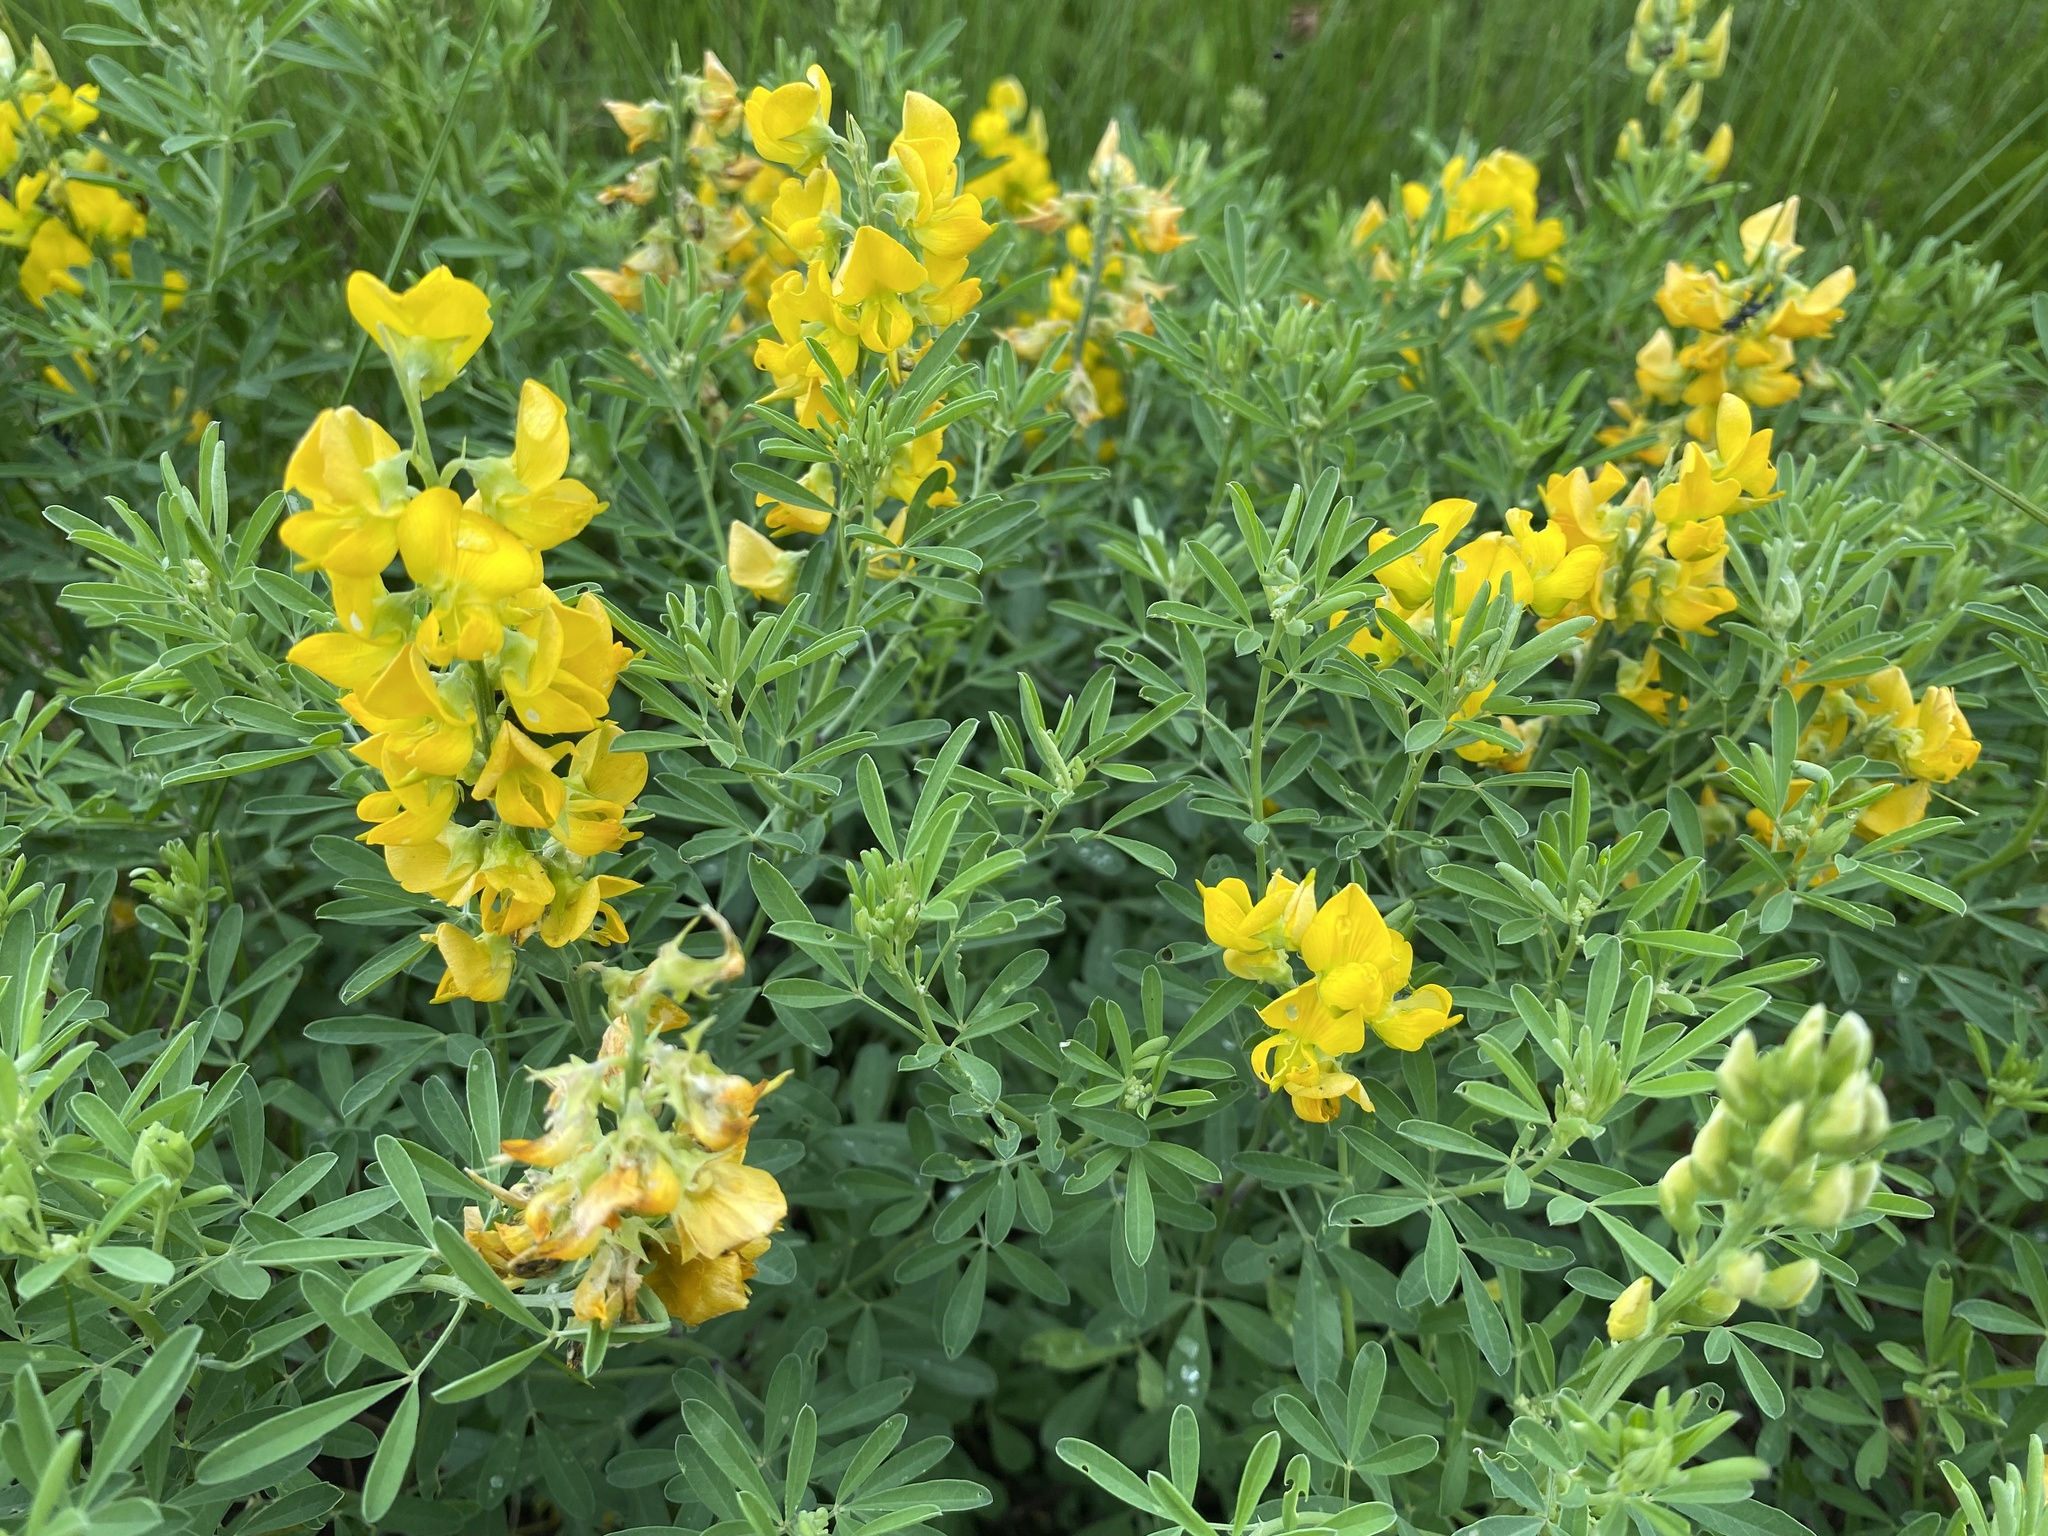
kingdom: Plantae
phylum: Tracheophyta
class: Magnoliopsida
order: Fabales
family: Fabaceae
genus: Crotalaria
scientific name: Crotalaria globifera
